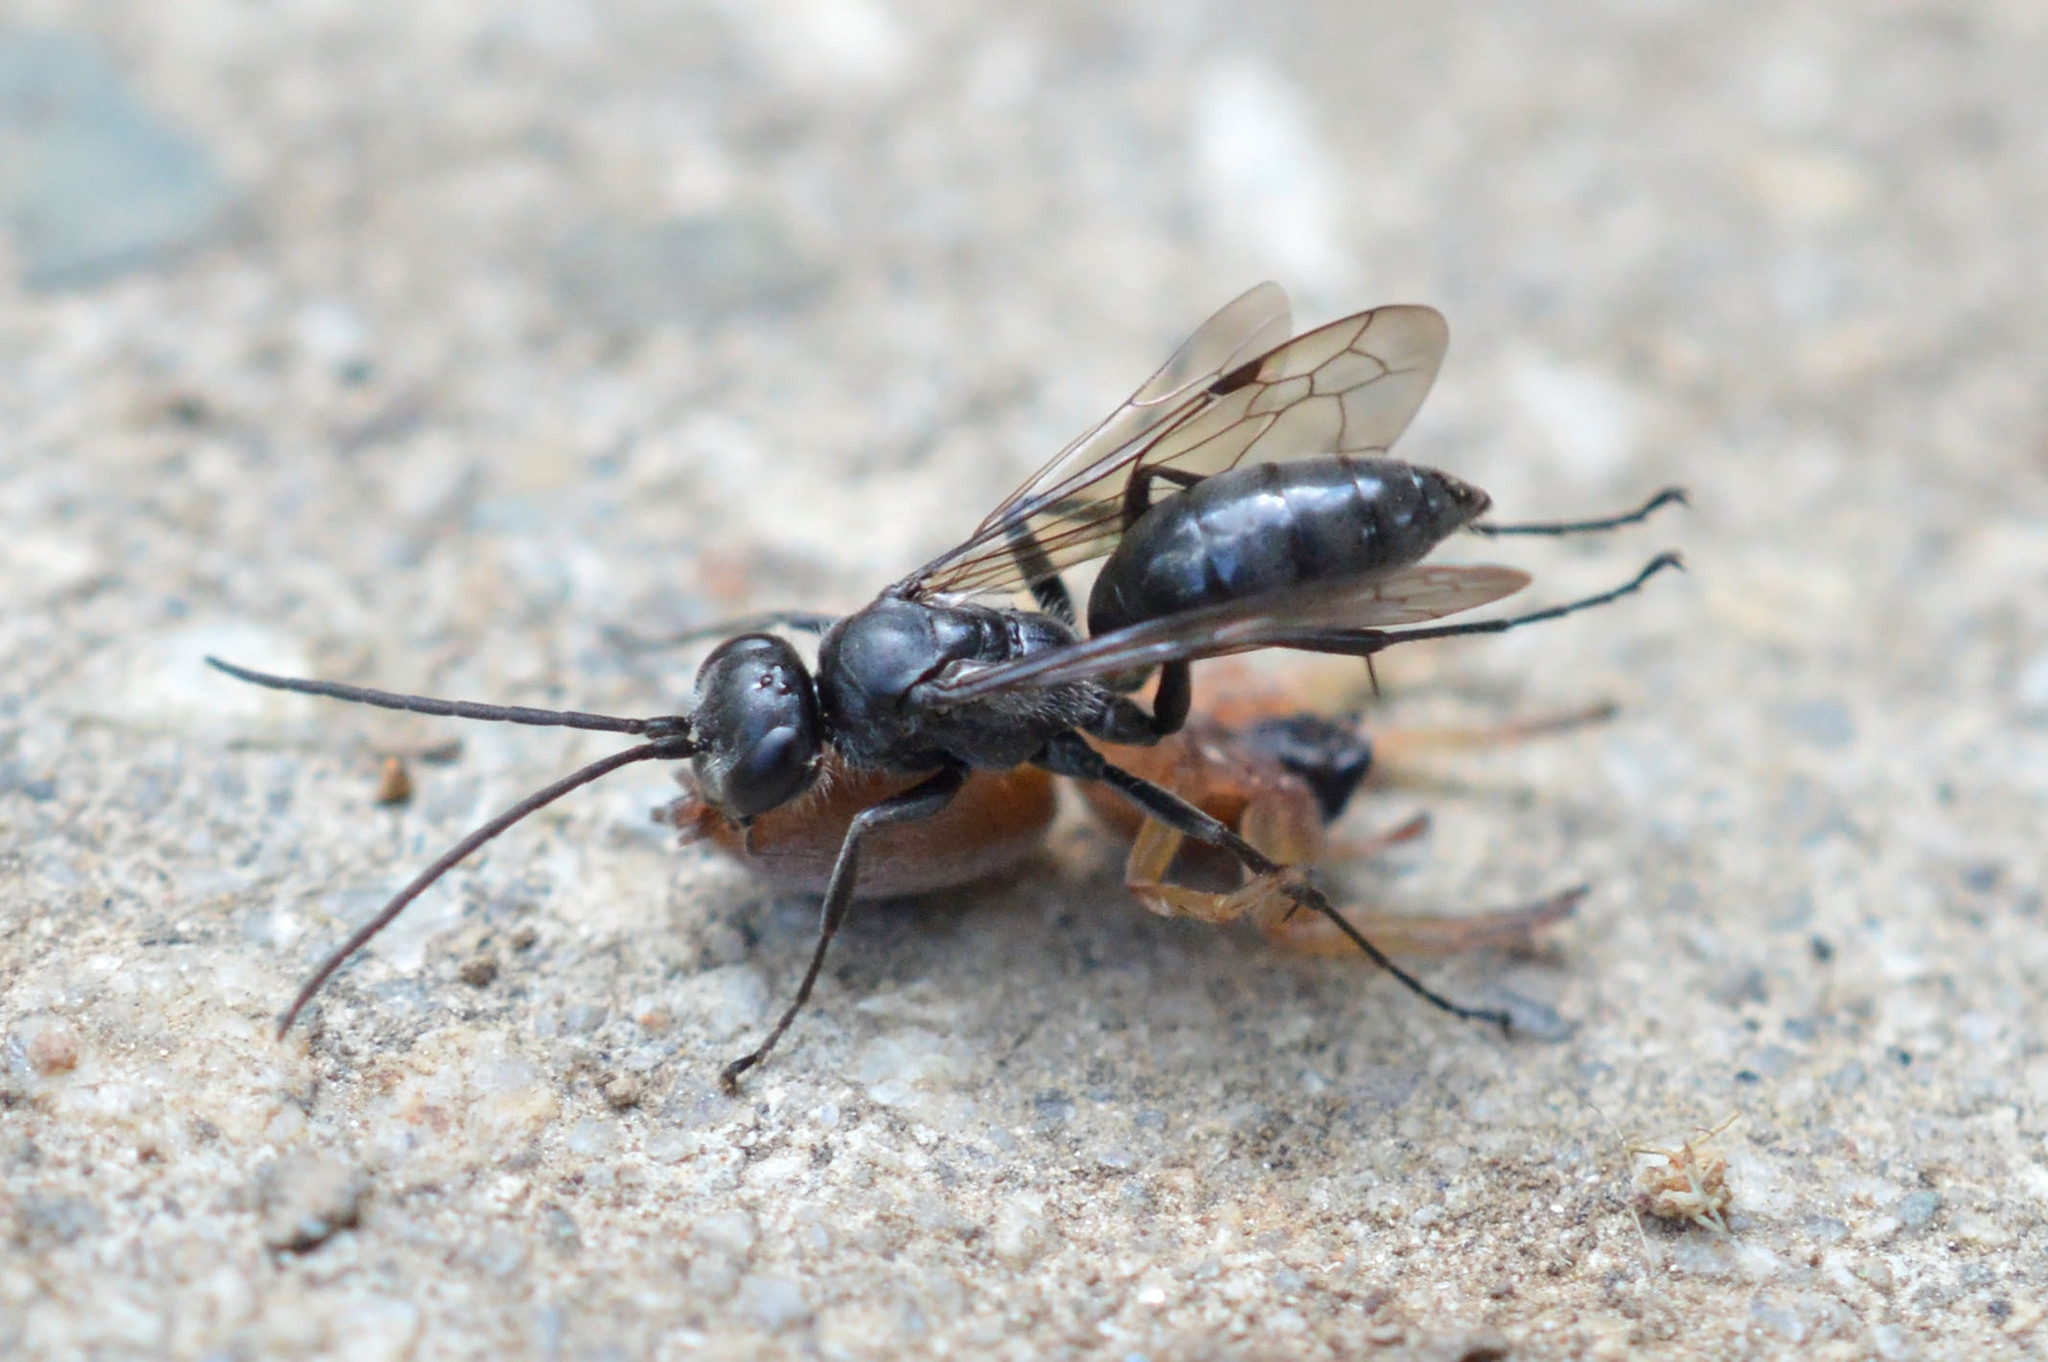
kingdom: Animalia
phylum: Arthropoda
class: Insecta
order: Hymenoptera
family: Pompilidae
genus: Auplopus
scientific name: Auplopus carbonarius
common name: Spider wasp
